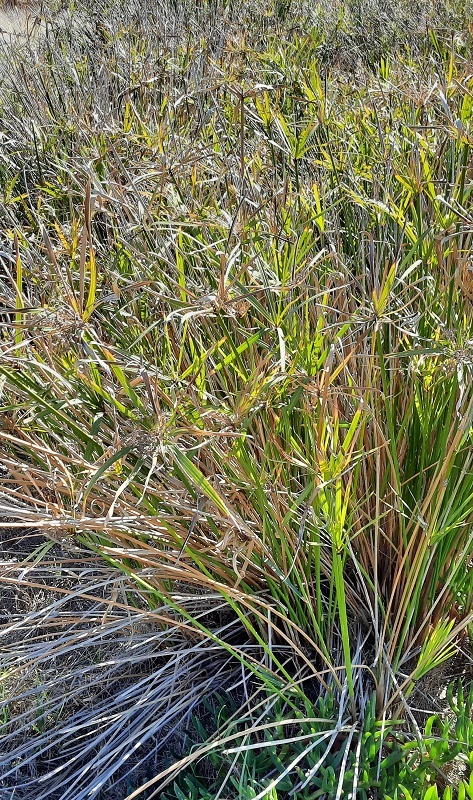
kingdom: Plantae
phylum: Tracheophyta
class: Liliopsida
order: Poales
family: Cyperaceae
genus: Cyperus
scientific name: Cyperus textilis
